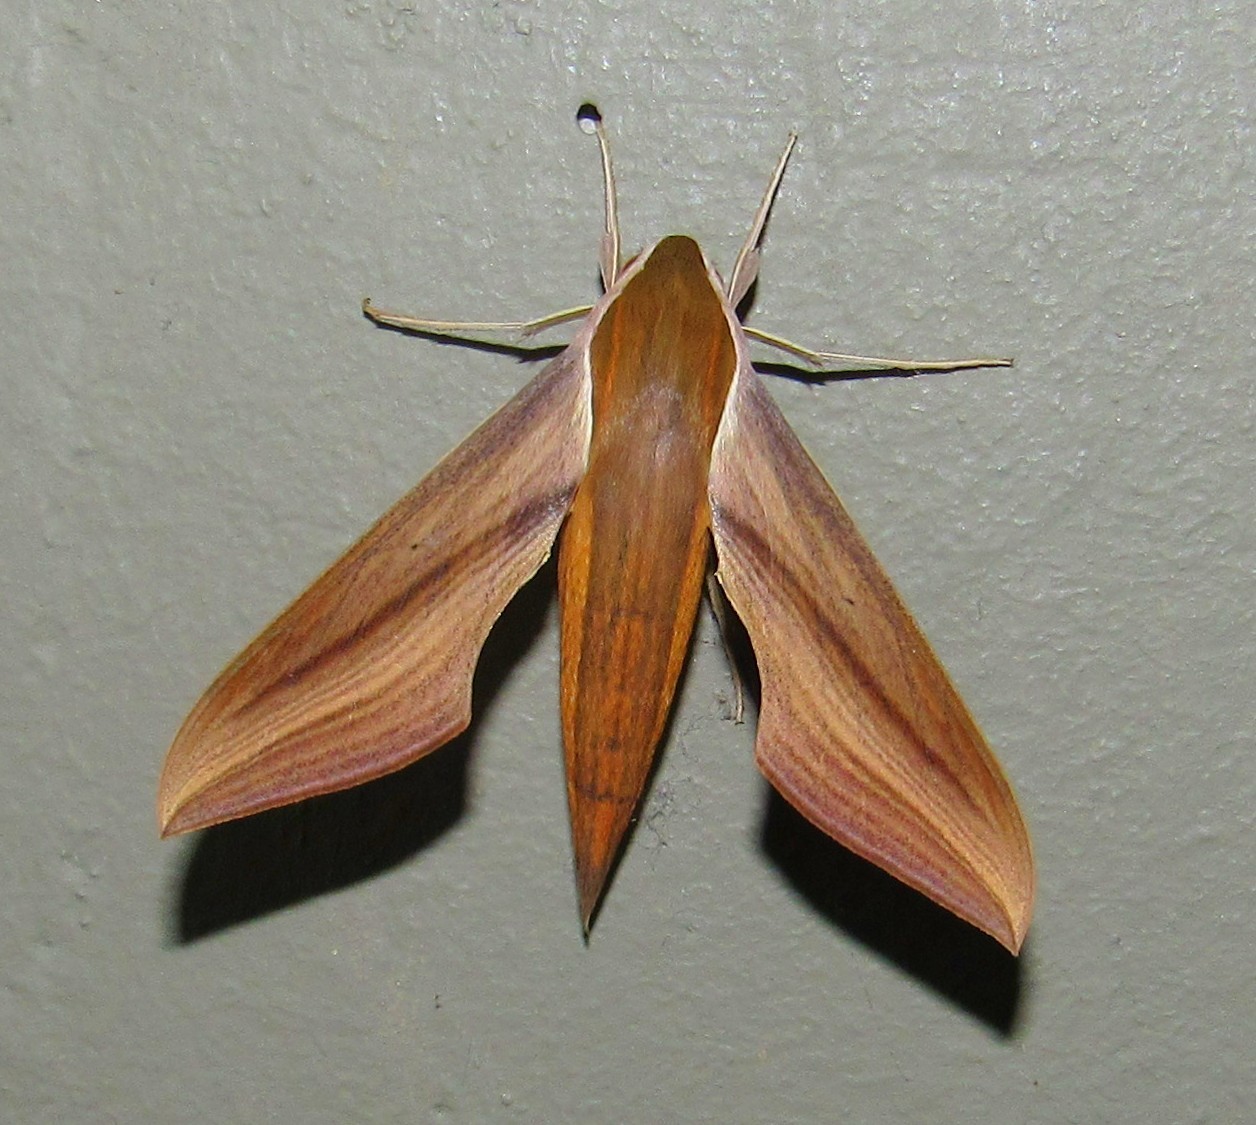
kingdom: Animalia
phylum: Arthropoda
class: Insecta
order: Lepidoptera
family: Sphingidae
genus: Xylophanes
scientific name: Xylophanes tersa
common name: Tersa sphinx
